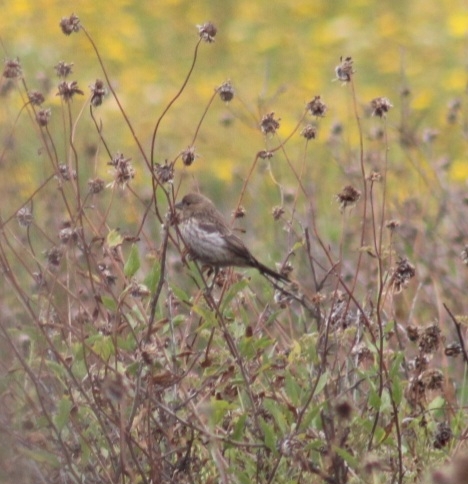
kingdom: Animalia
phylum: Chordata
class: Aves
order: Passeriformes
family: Fringillidae
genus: Haemorhous
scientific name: Haemorhous mexicanus
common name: House finch
